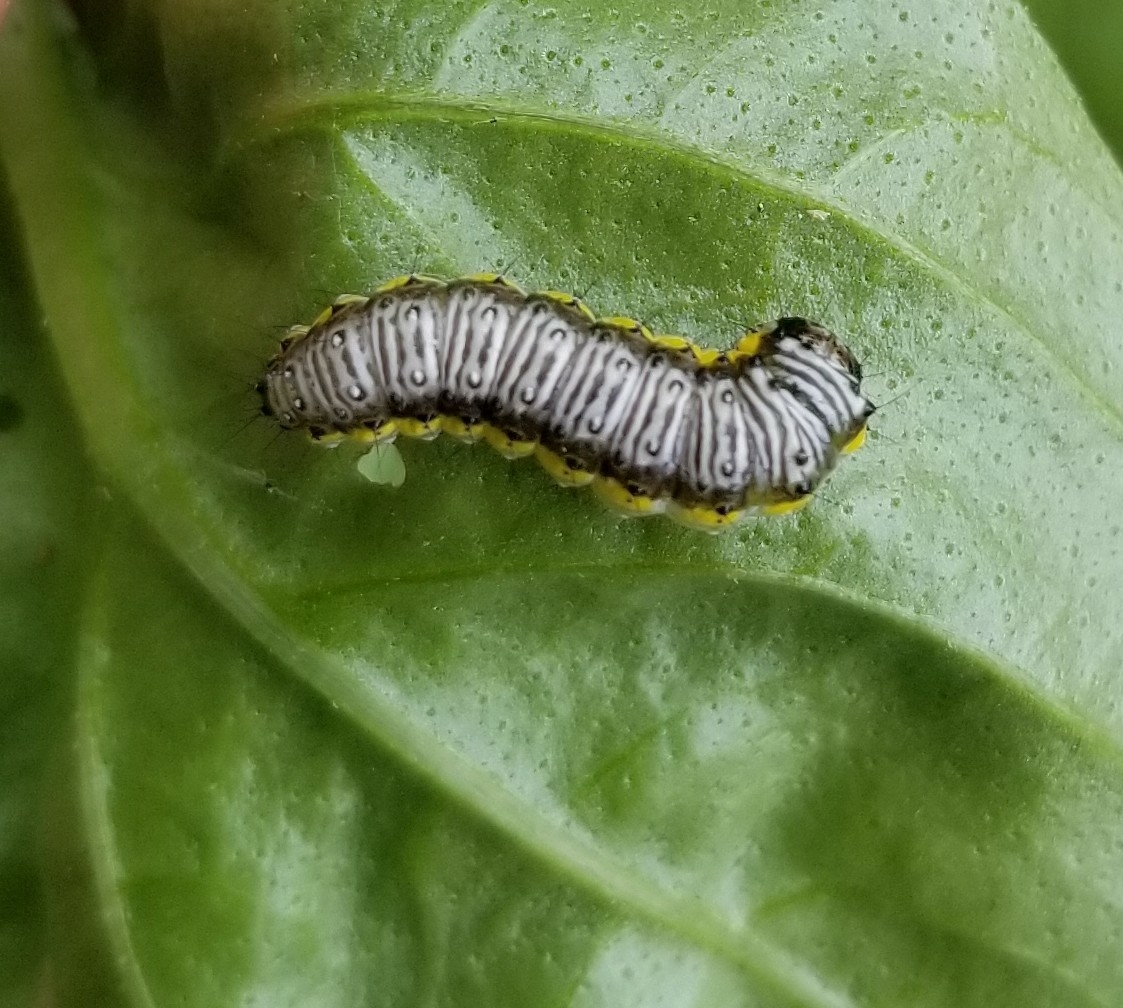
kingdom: Animalia
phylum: Arthropoda
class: Insecta
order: Lepidoptera
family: Crambidae
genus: Evergestis
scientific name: Evergestis rimosalis
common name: Cross-striped cabbageworm moth
